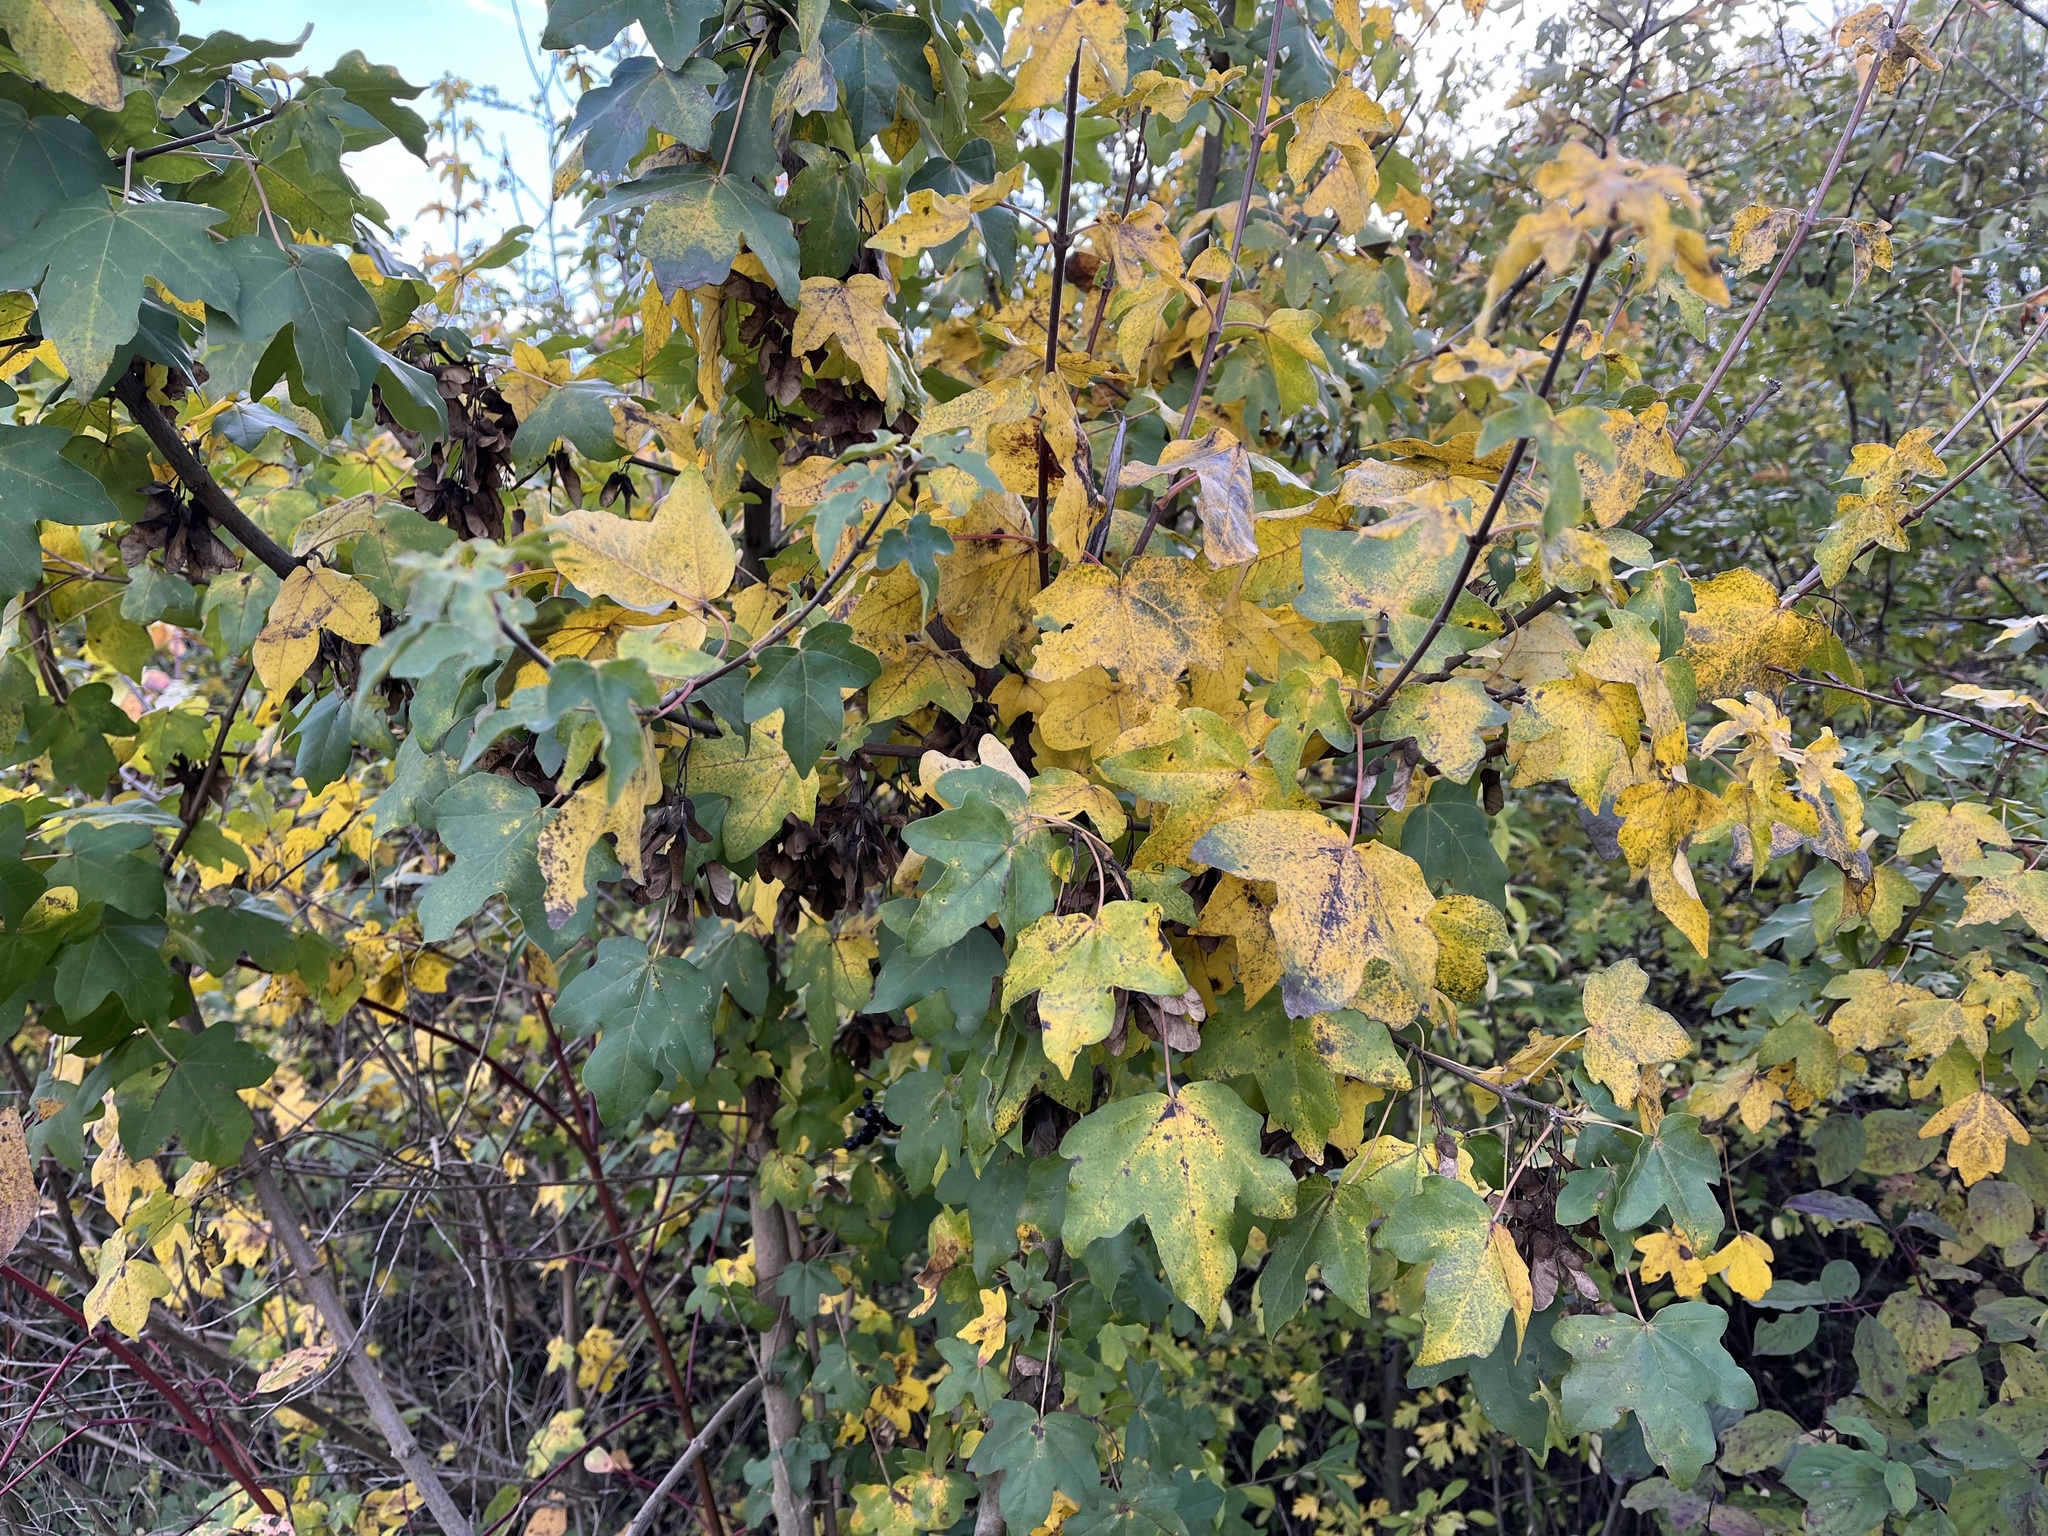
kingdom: Plantae
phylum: Tracheophyta
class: Magnoliopsida
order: Sapindales
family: Sapindaceae
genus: Acer
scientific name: Acer campestre
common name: Field maple
